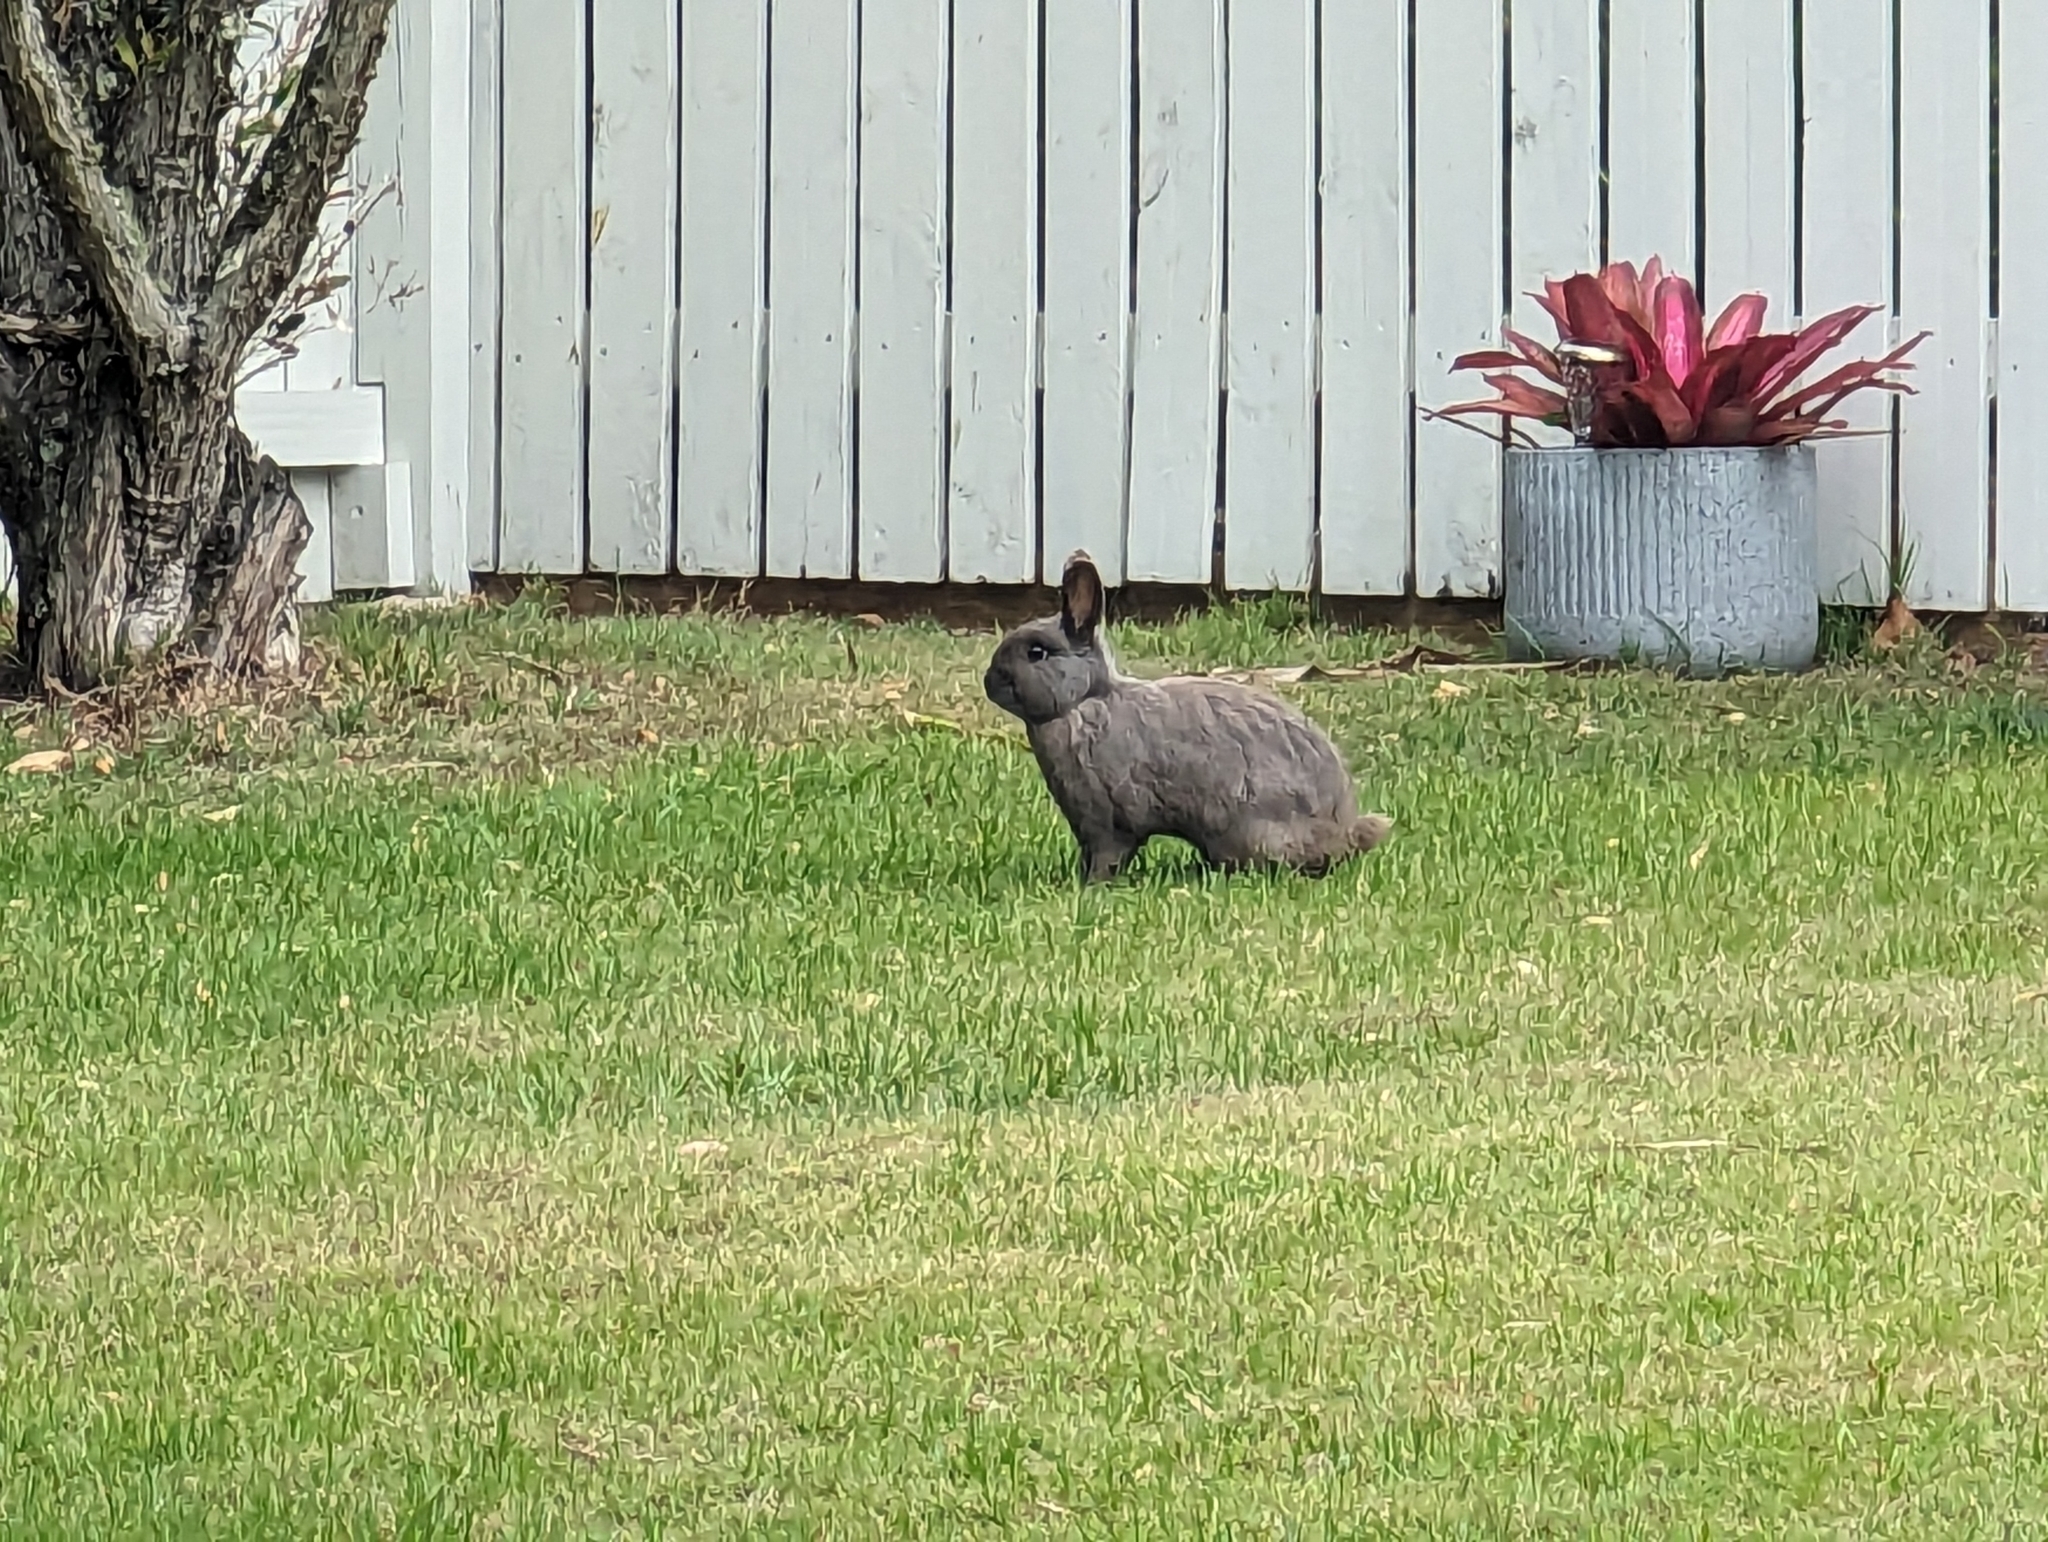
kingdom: Animalia
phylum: Chordata
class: Mammalia
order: Lagomorpha
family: Leporidae
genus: Oryctolagus
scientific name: Oryctolagus cuniculus
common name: European rabbit
